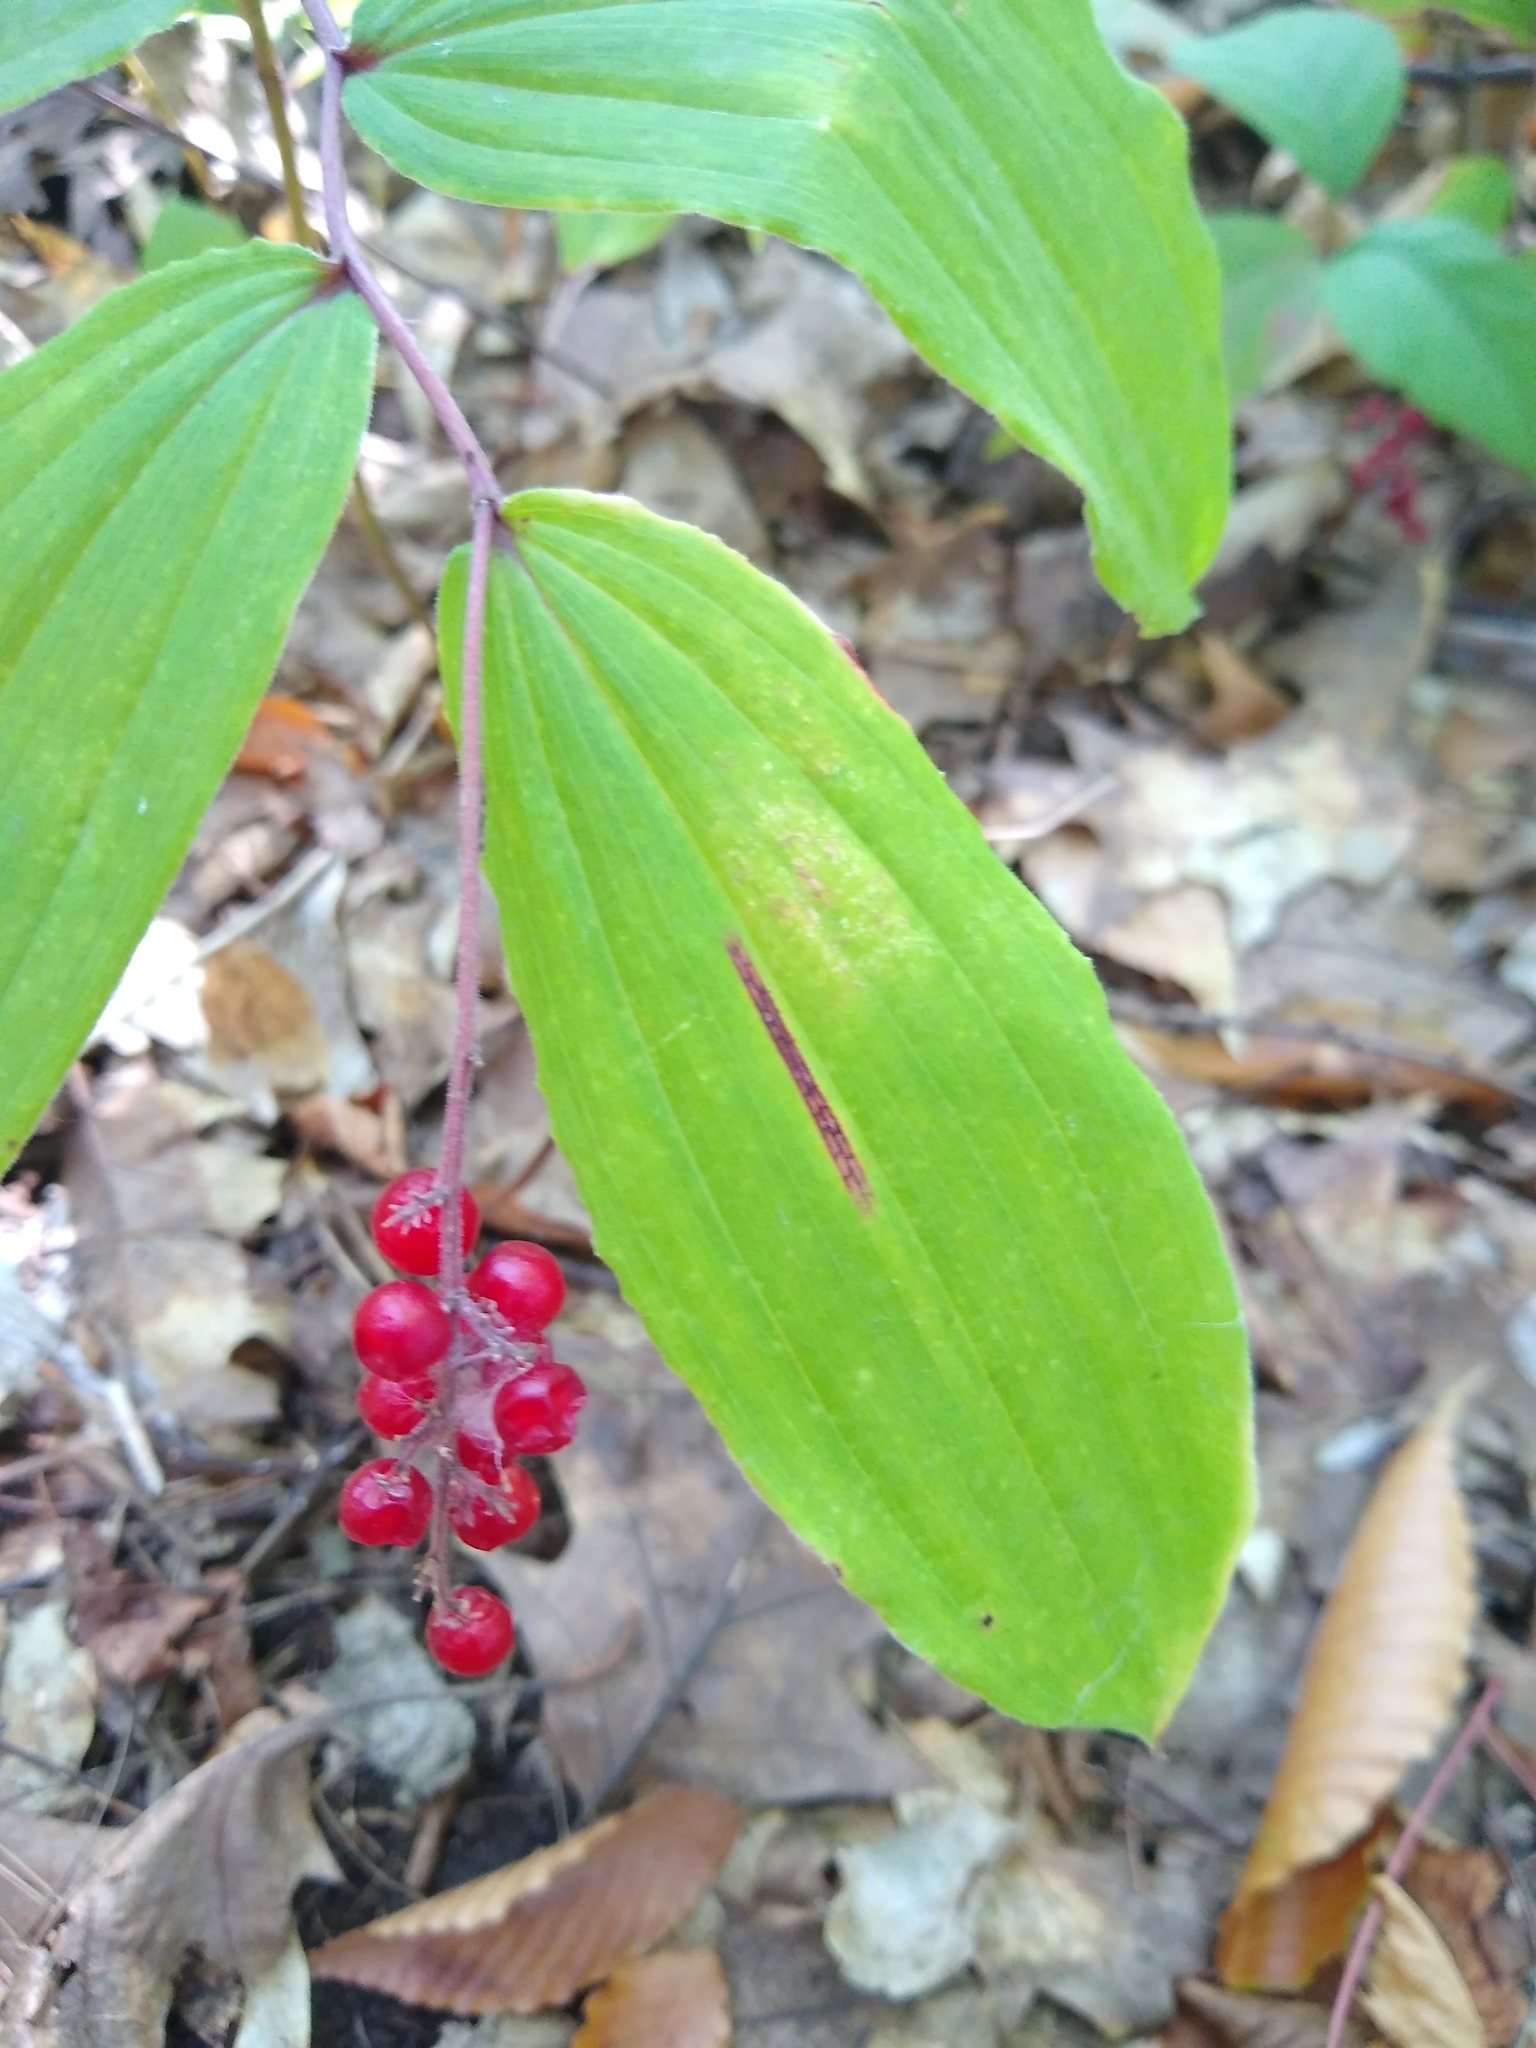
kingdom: Plantae
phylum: Tracheophyta
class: Liliopsida
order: Asparagales
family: Asparagaceae
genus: Maianthemum
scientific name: Maianthemum racemosum
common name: False spikenard
